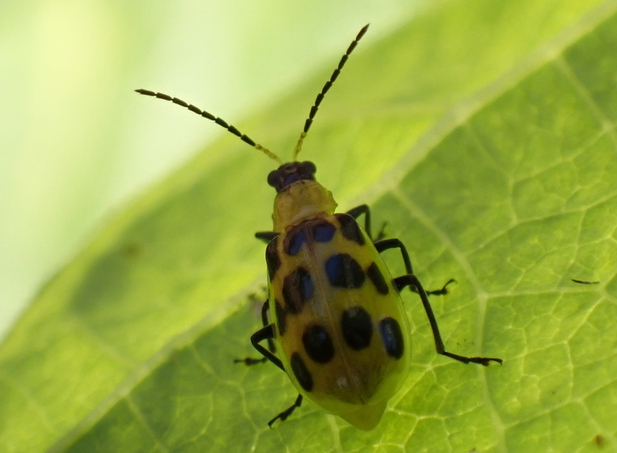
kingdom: Animalia
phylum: Arthropoda
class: Insecta
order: Coleoptera
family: Chrysomelidae
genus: Diabrotica
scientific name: Diabrotica undecimpunctata
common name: Spotted cucumber beetle
